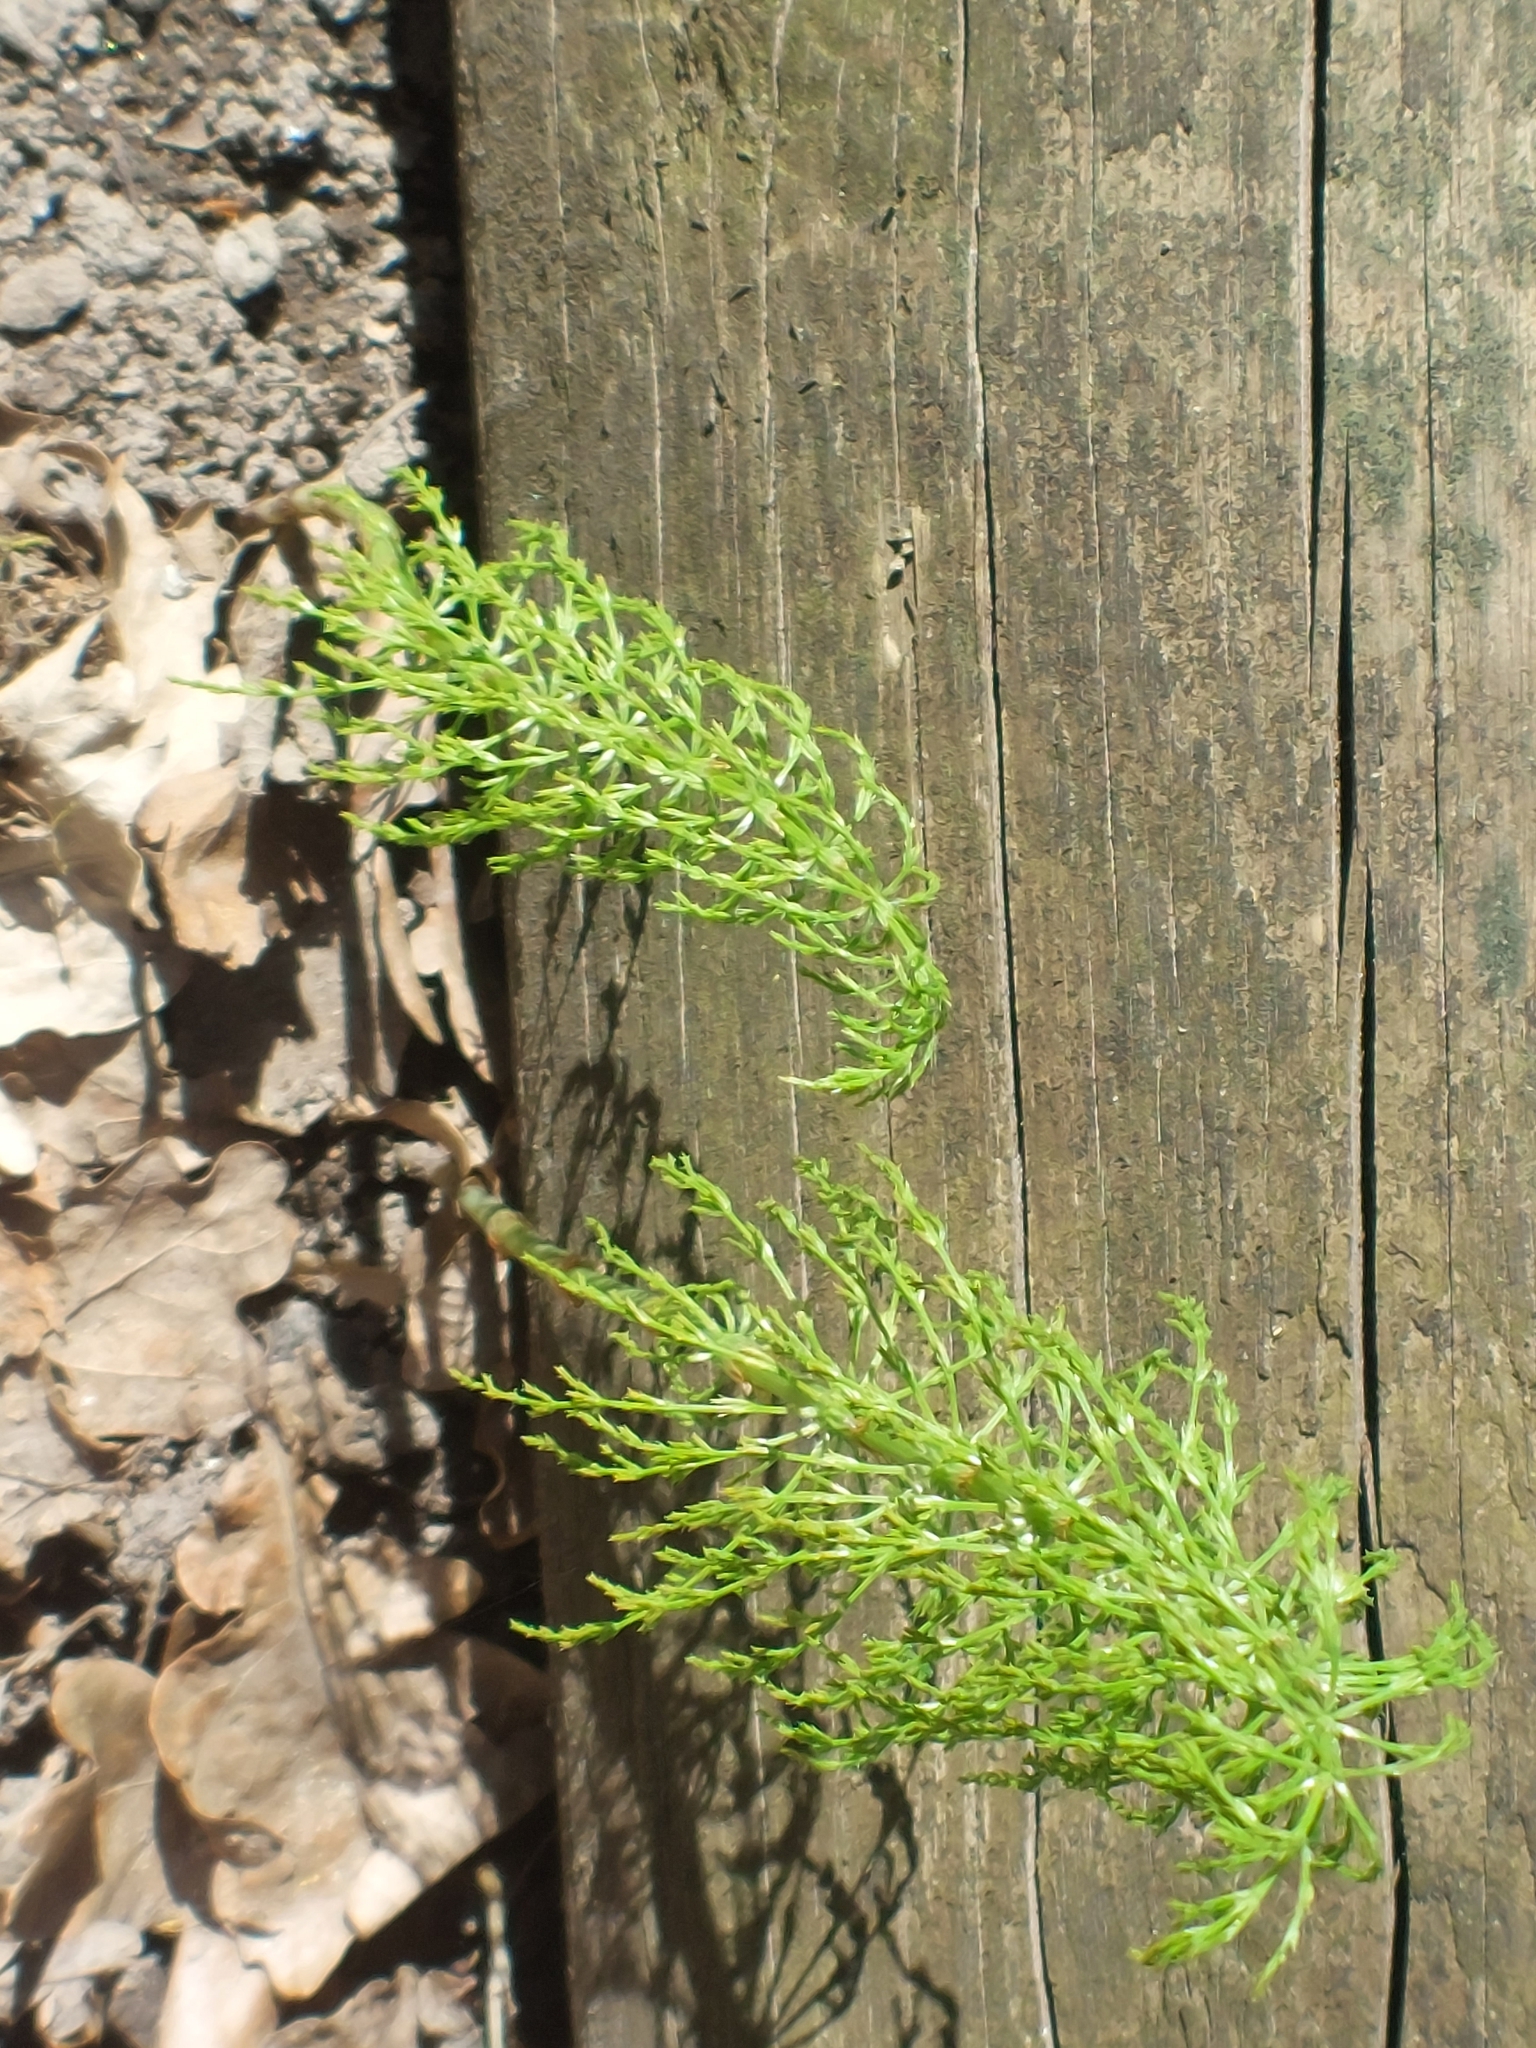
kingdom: Plantae
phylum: Tracheophyta
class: Polypodiopsida
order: Equisetales
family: Equisetaceae
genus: Equisetum
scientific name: Equisetum sylvaticum
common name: Wood horsetail
